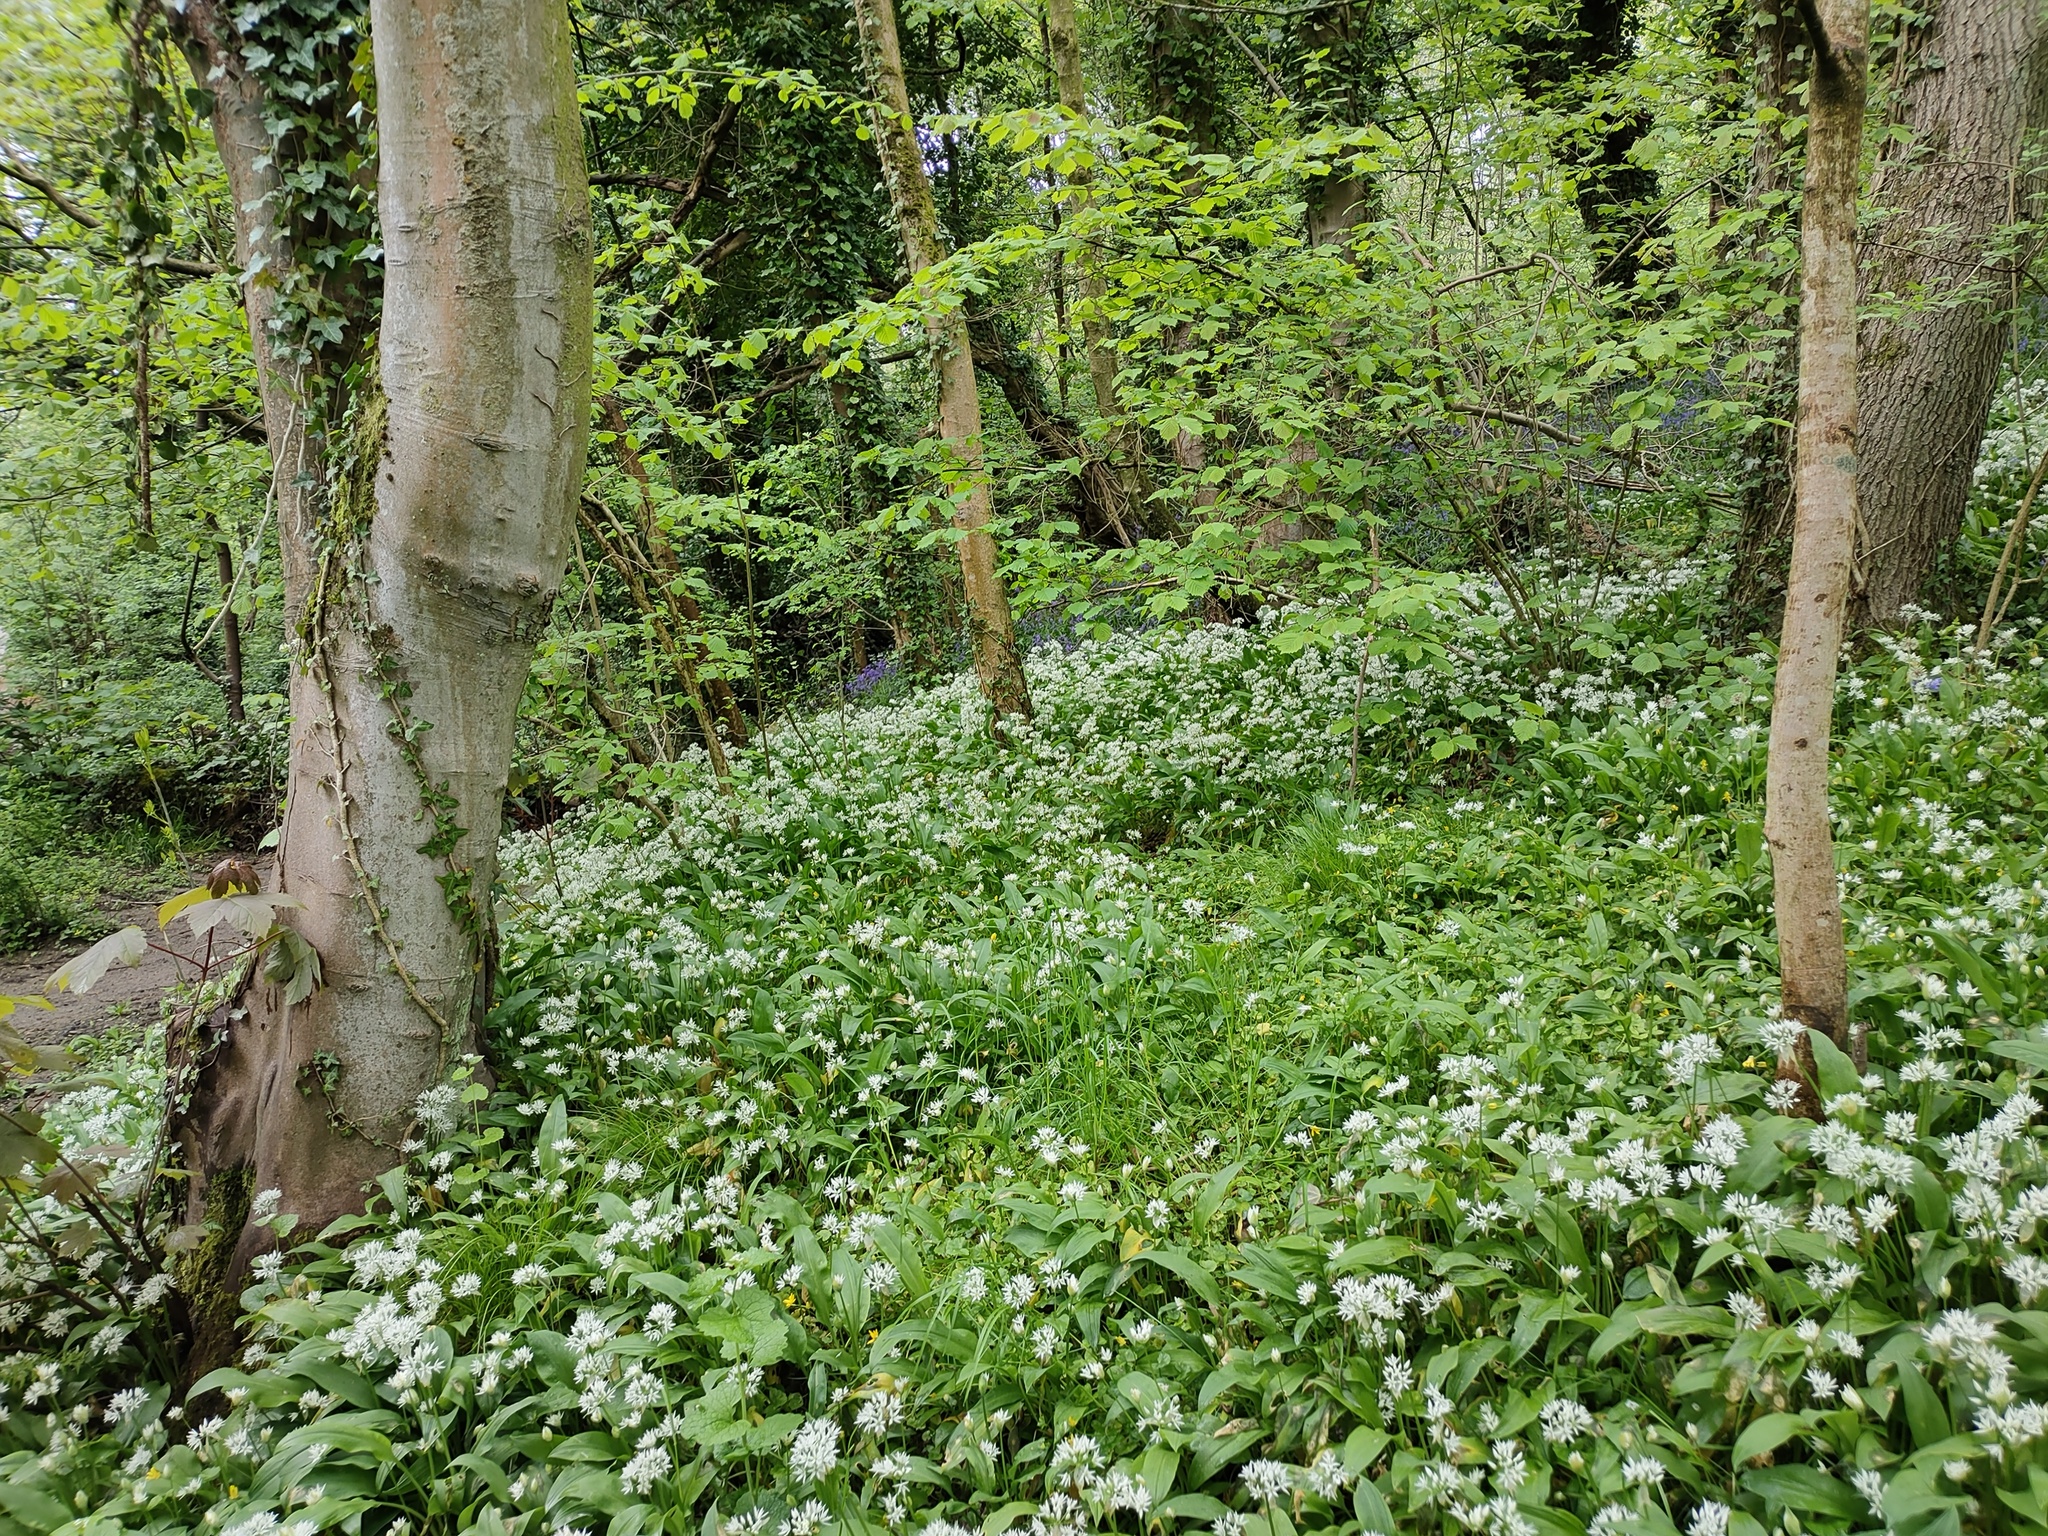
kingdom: Plantae
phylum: Tracheophyta
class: Liliopsida
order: Asparagales
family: Amaryllidaceae
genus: Allium
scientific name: Allium ursinum
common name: Ramsons
